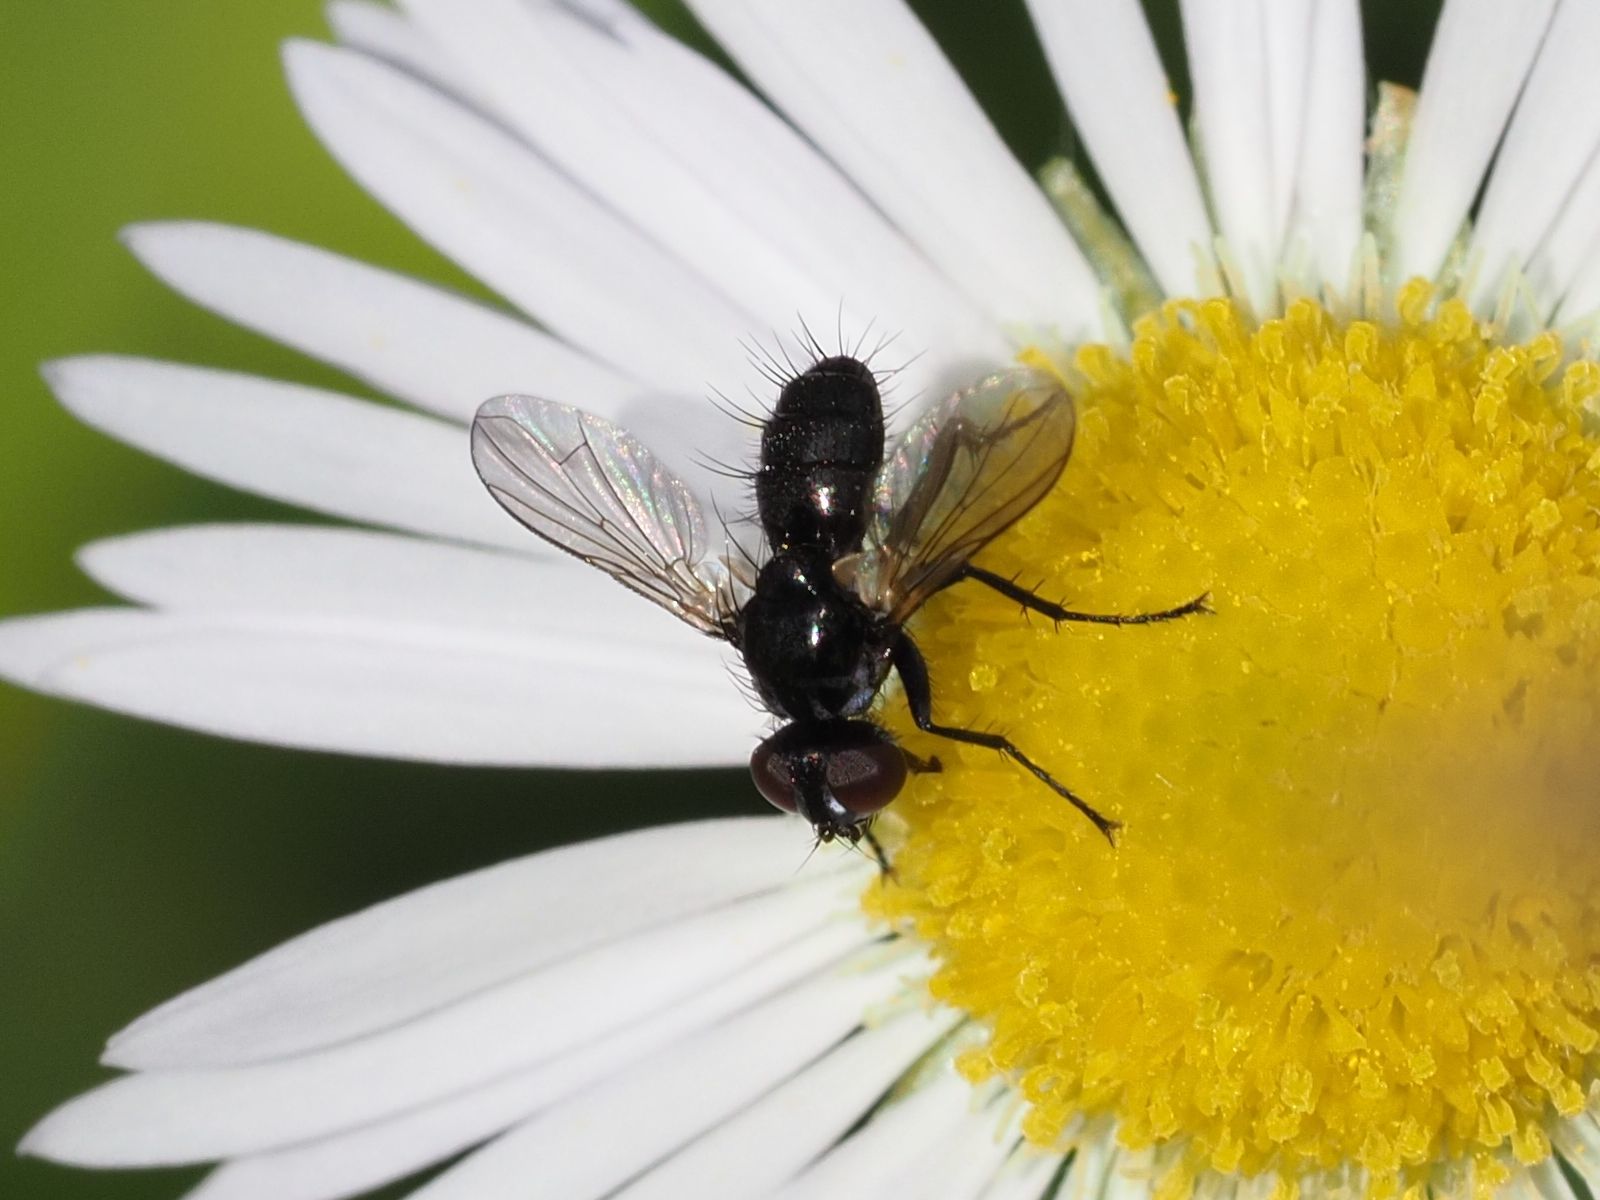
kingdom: Animalia
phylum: Arthropoda
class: Insecta
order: Diptera
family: Tachinidae
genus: Phania
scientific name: Phania funesta
